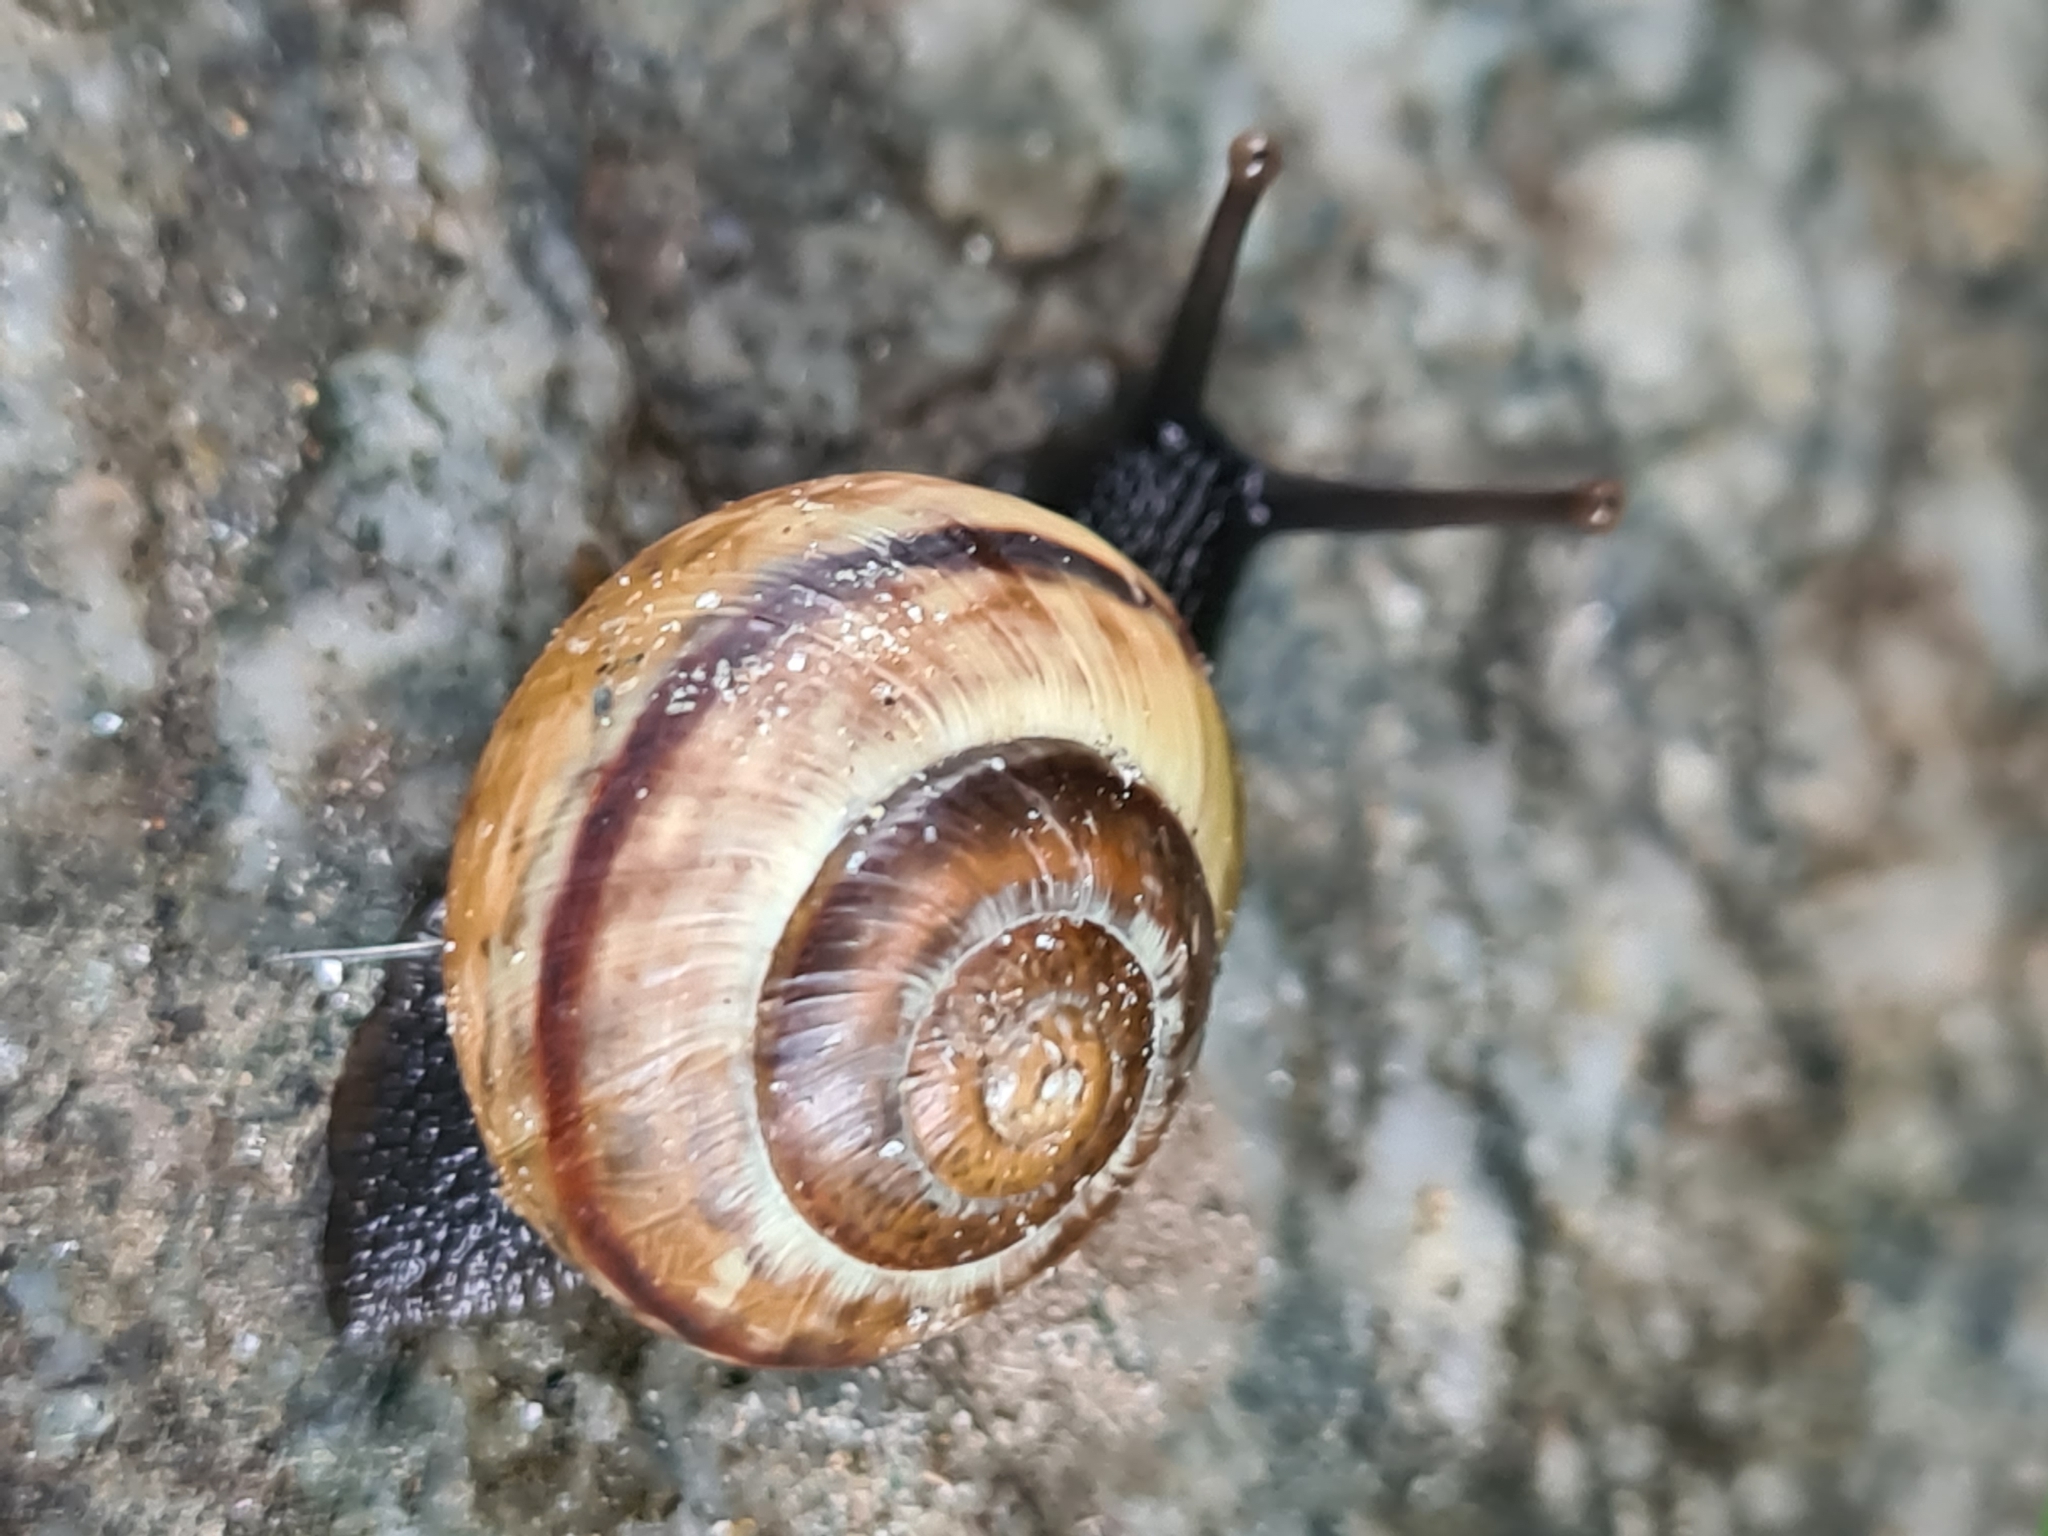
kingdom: Animalia
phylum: Mollusca
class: Gastropoda
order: Stylommatophora
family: Helicidae
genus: Arianta
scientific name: Arianta arbustorum
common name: Copse snail
